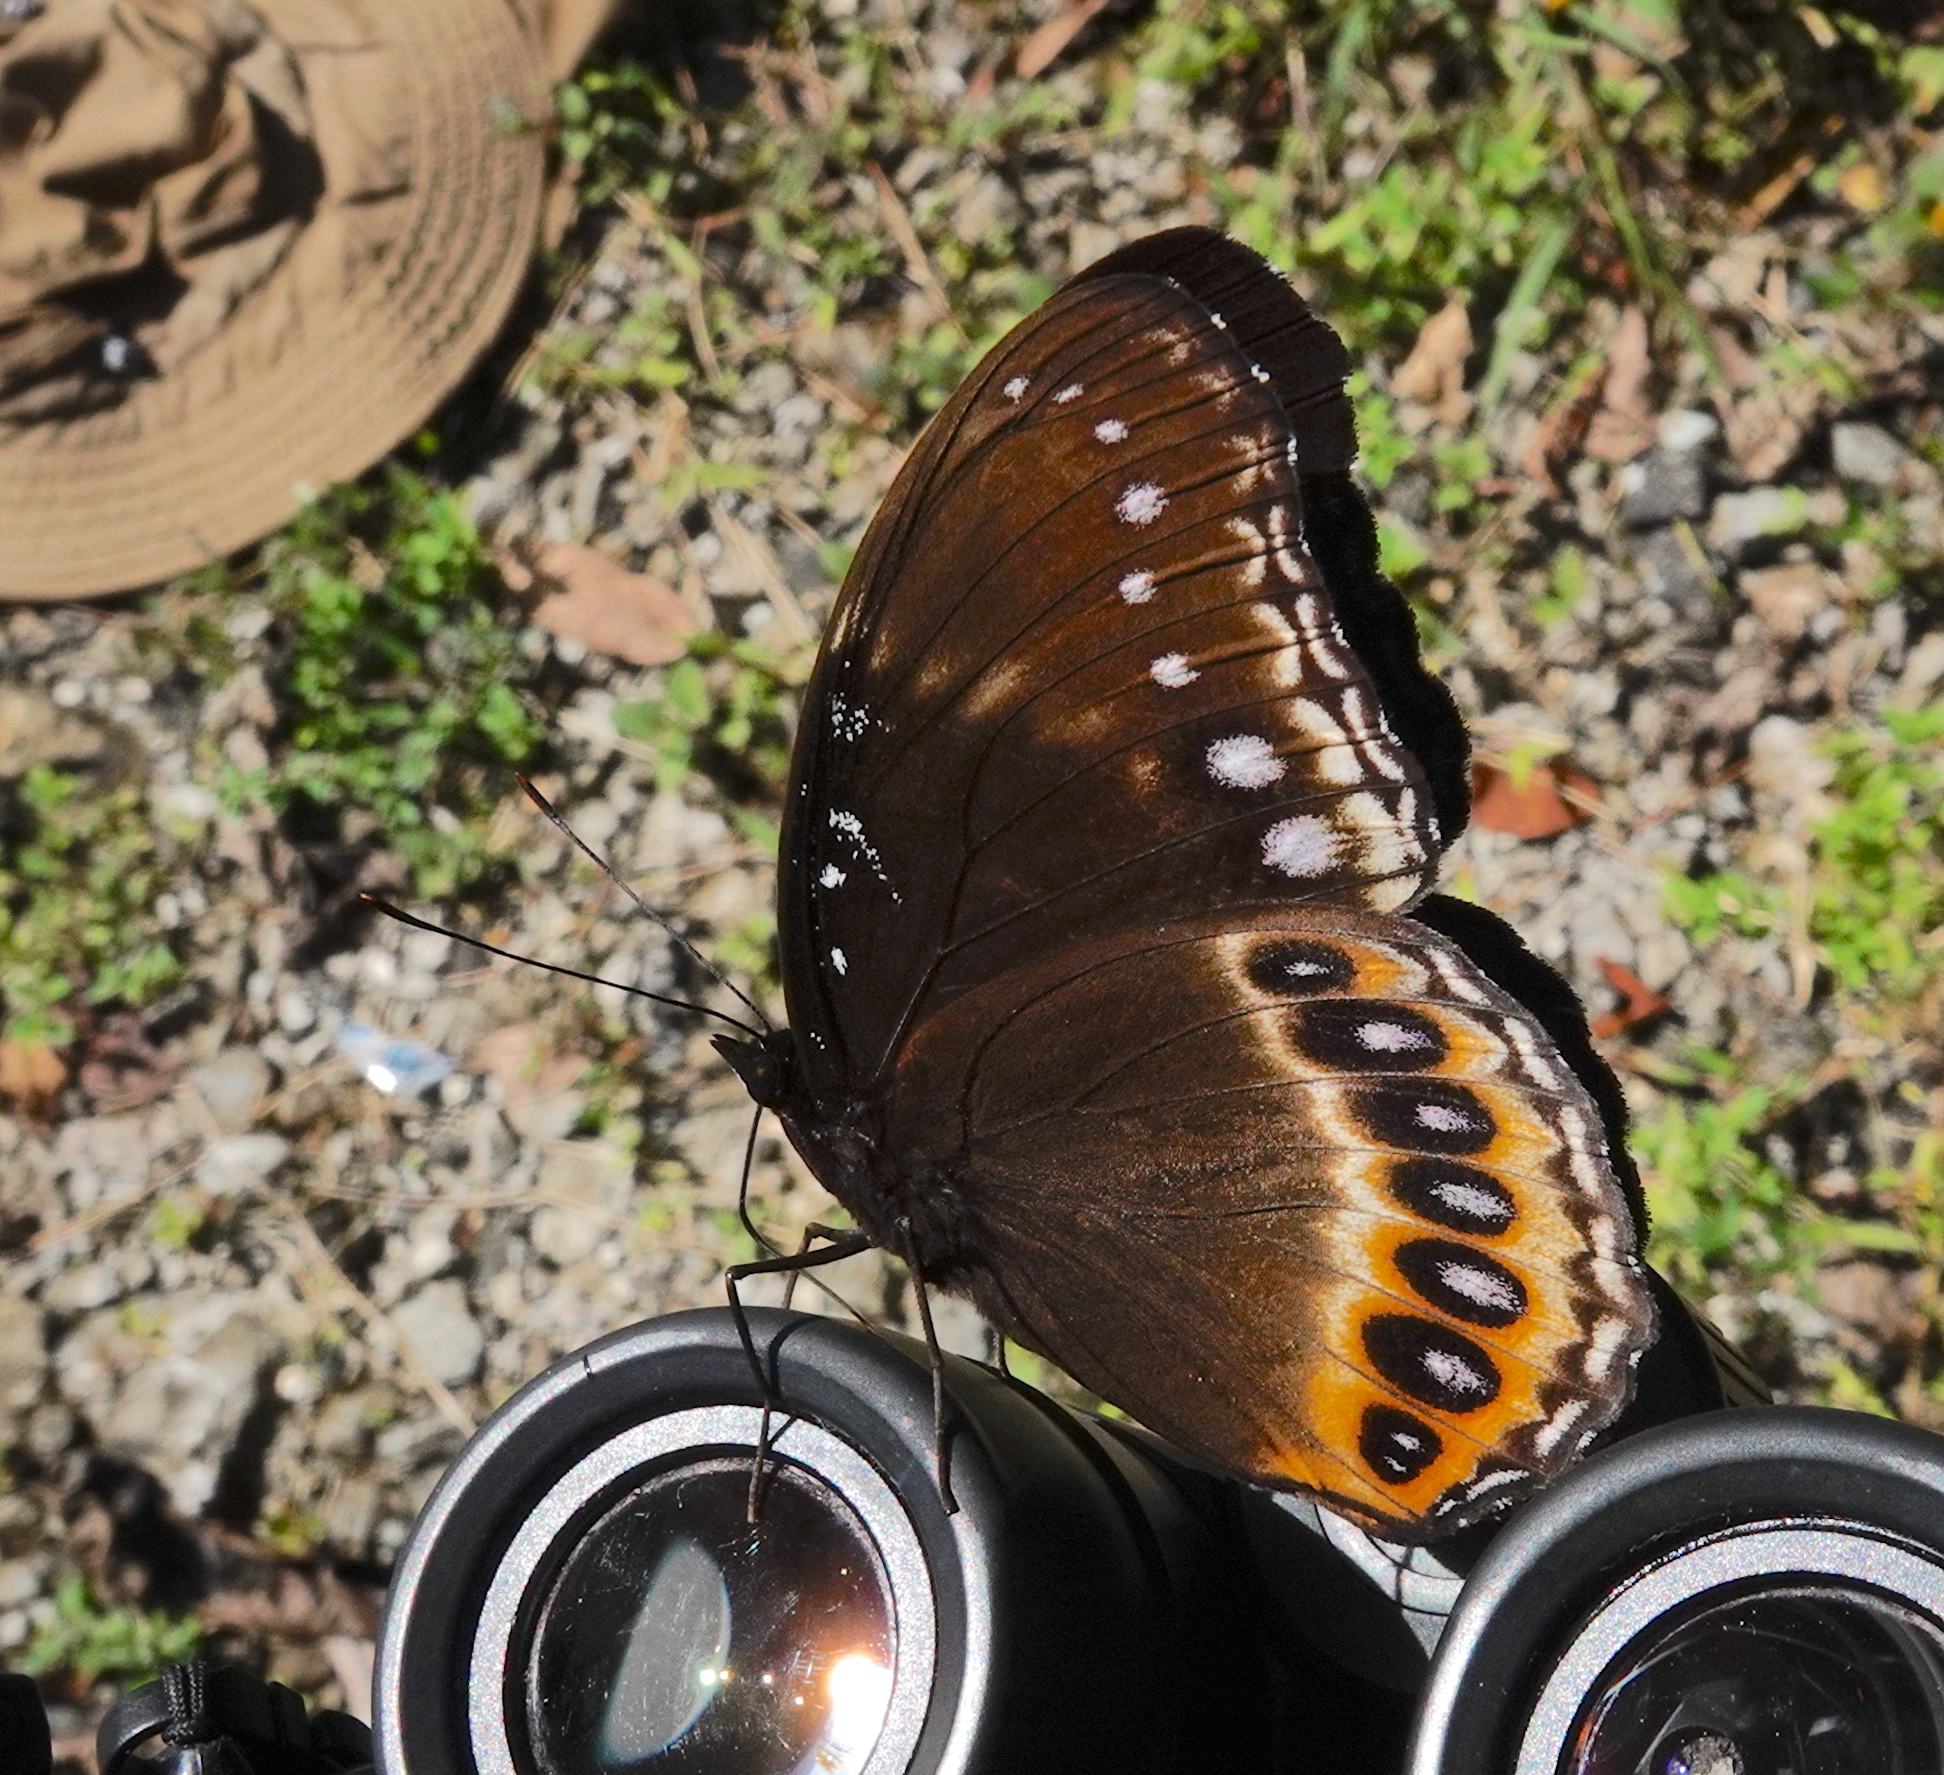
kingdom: Animalia
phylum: Arthropoda
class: Insecta
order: Lepidoptera
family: Nymphalidae
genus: Hypolimnas
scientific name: Hypolimnas pandarus
